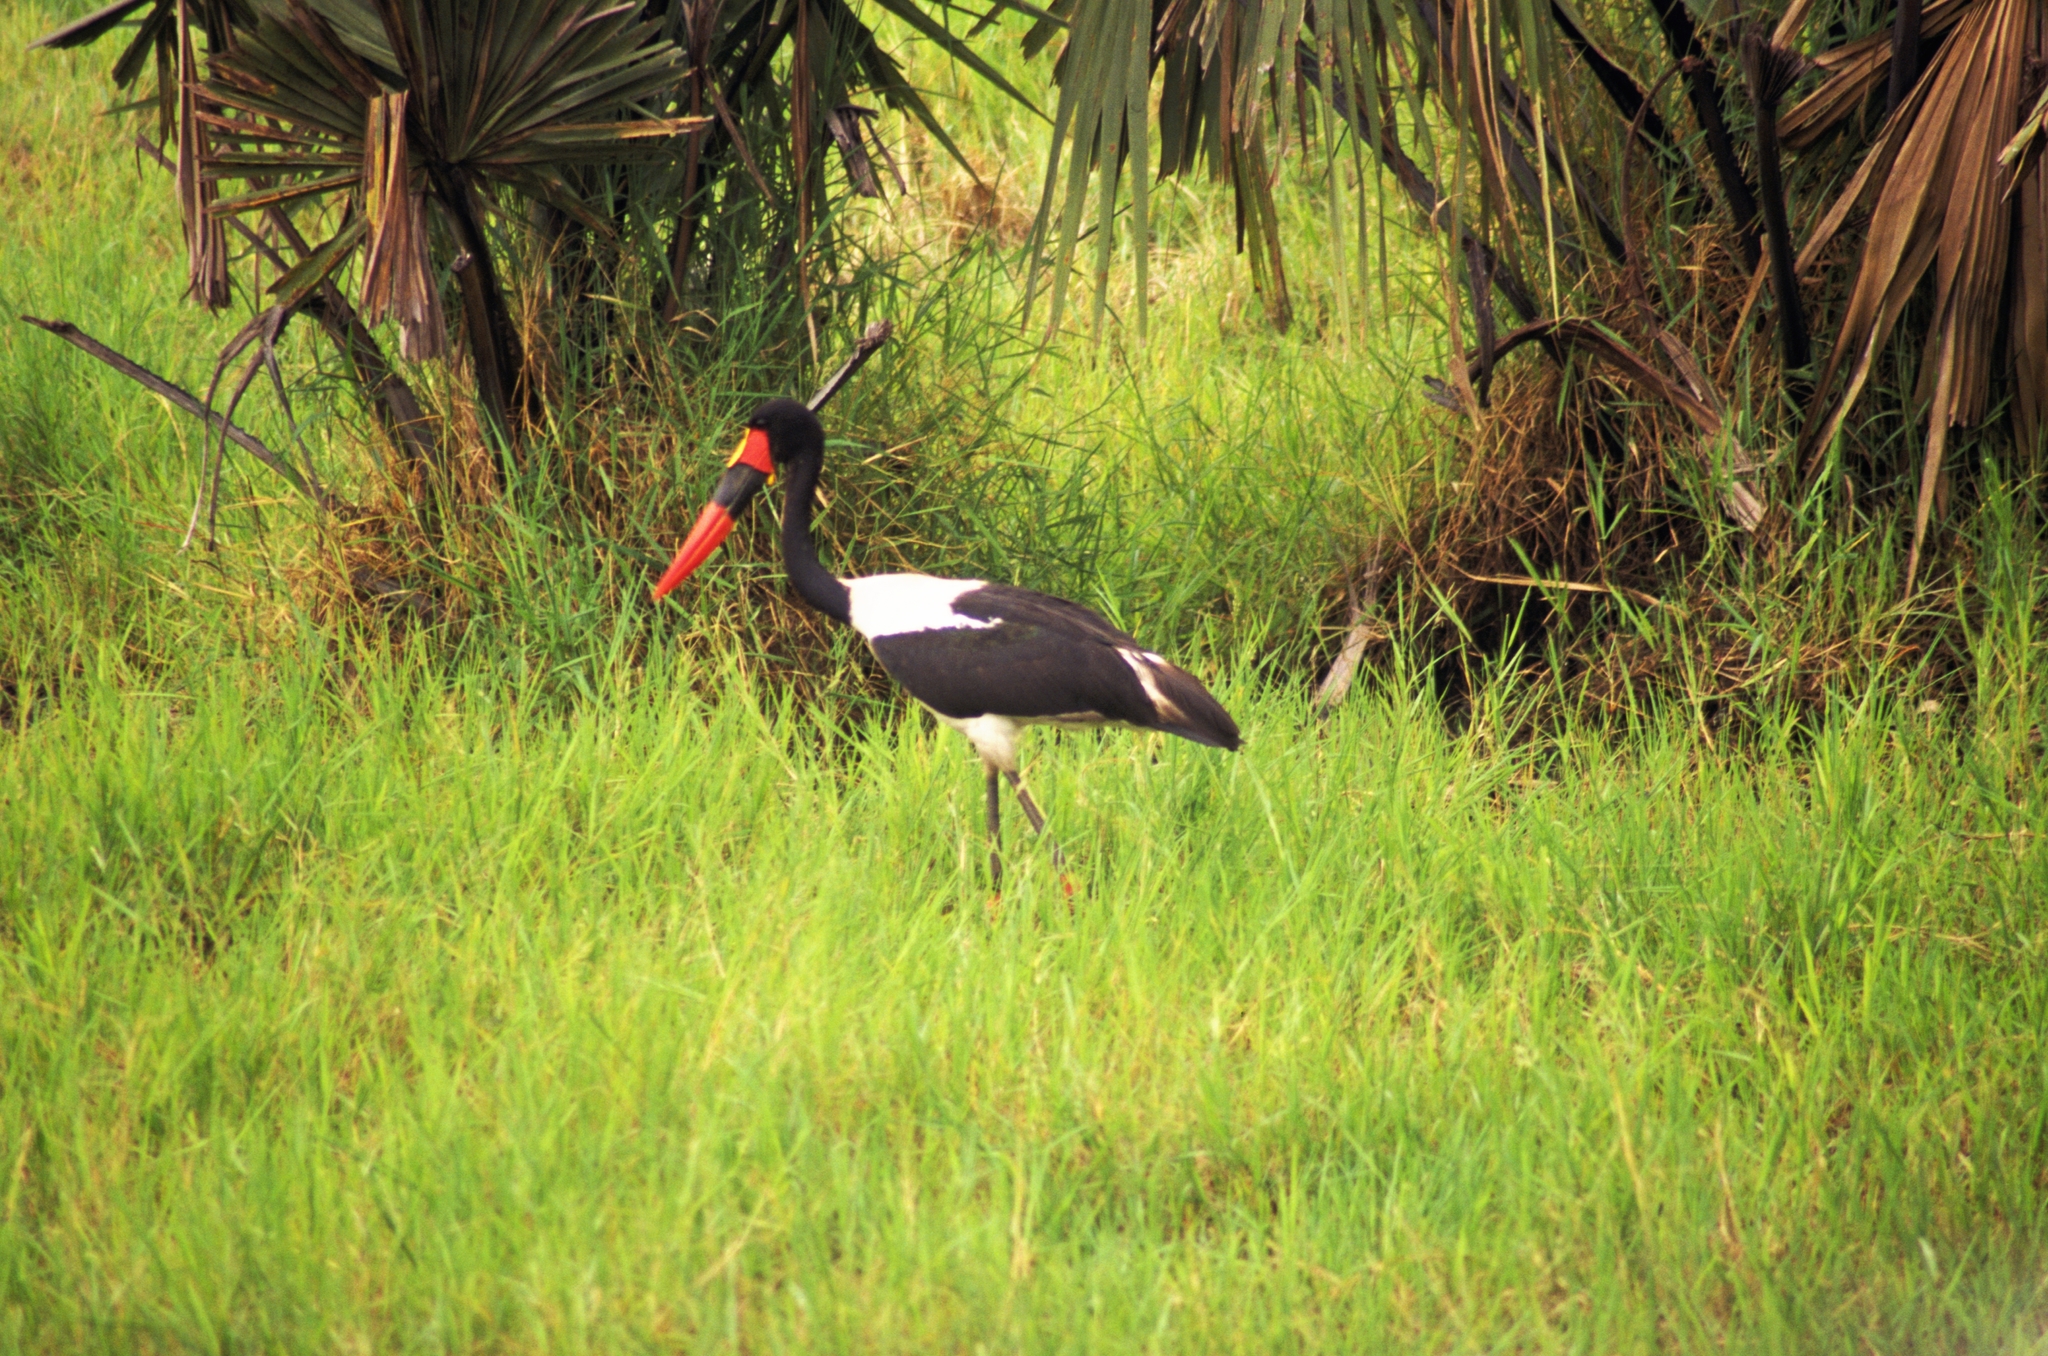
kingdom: Animalia
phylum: Chordata
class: Aves
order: Ciconiiformes
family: Ciconiidae
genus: Ephippiorhynchus
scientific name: Ephippiorhynchus senegalensis
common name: Saddle-billed stork
